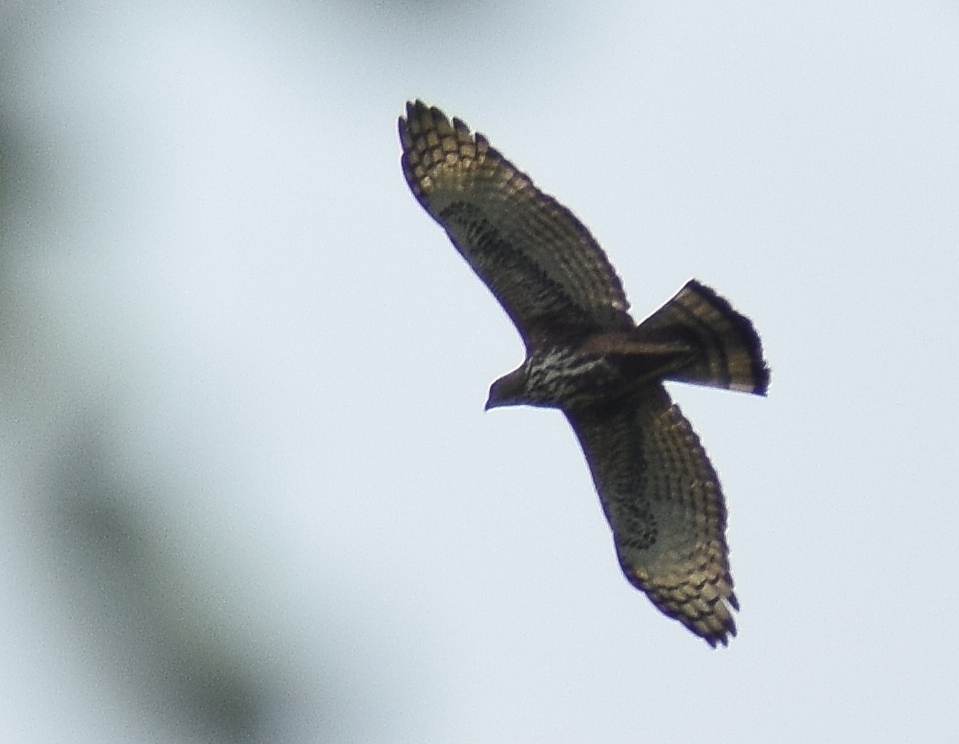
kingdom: Animalia
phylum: Chordata
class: Aves
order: Accipitriformes
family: Accipitridae
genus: Nisaetus
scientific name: Nisaetus cirrhatus
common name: Changeable hawk-eagle
